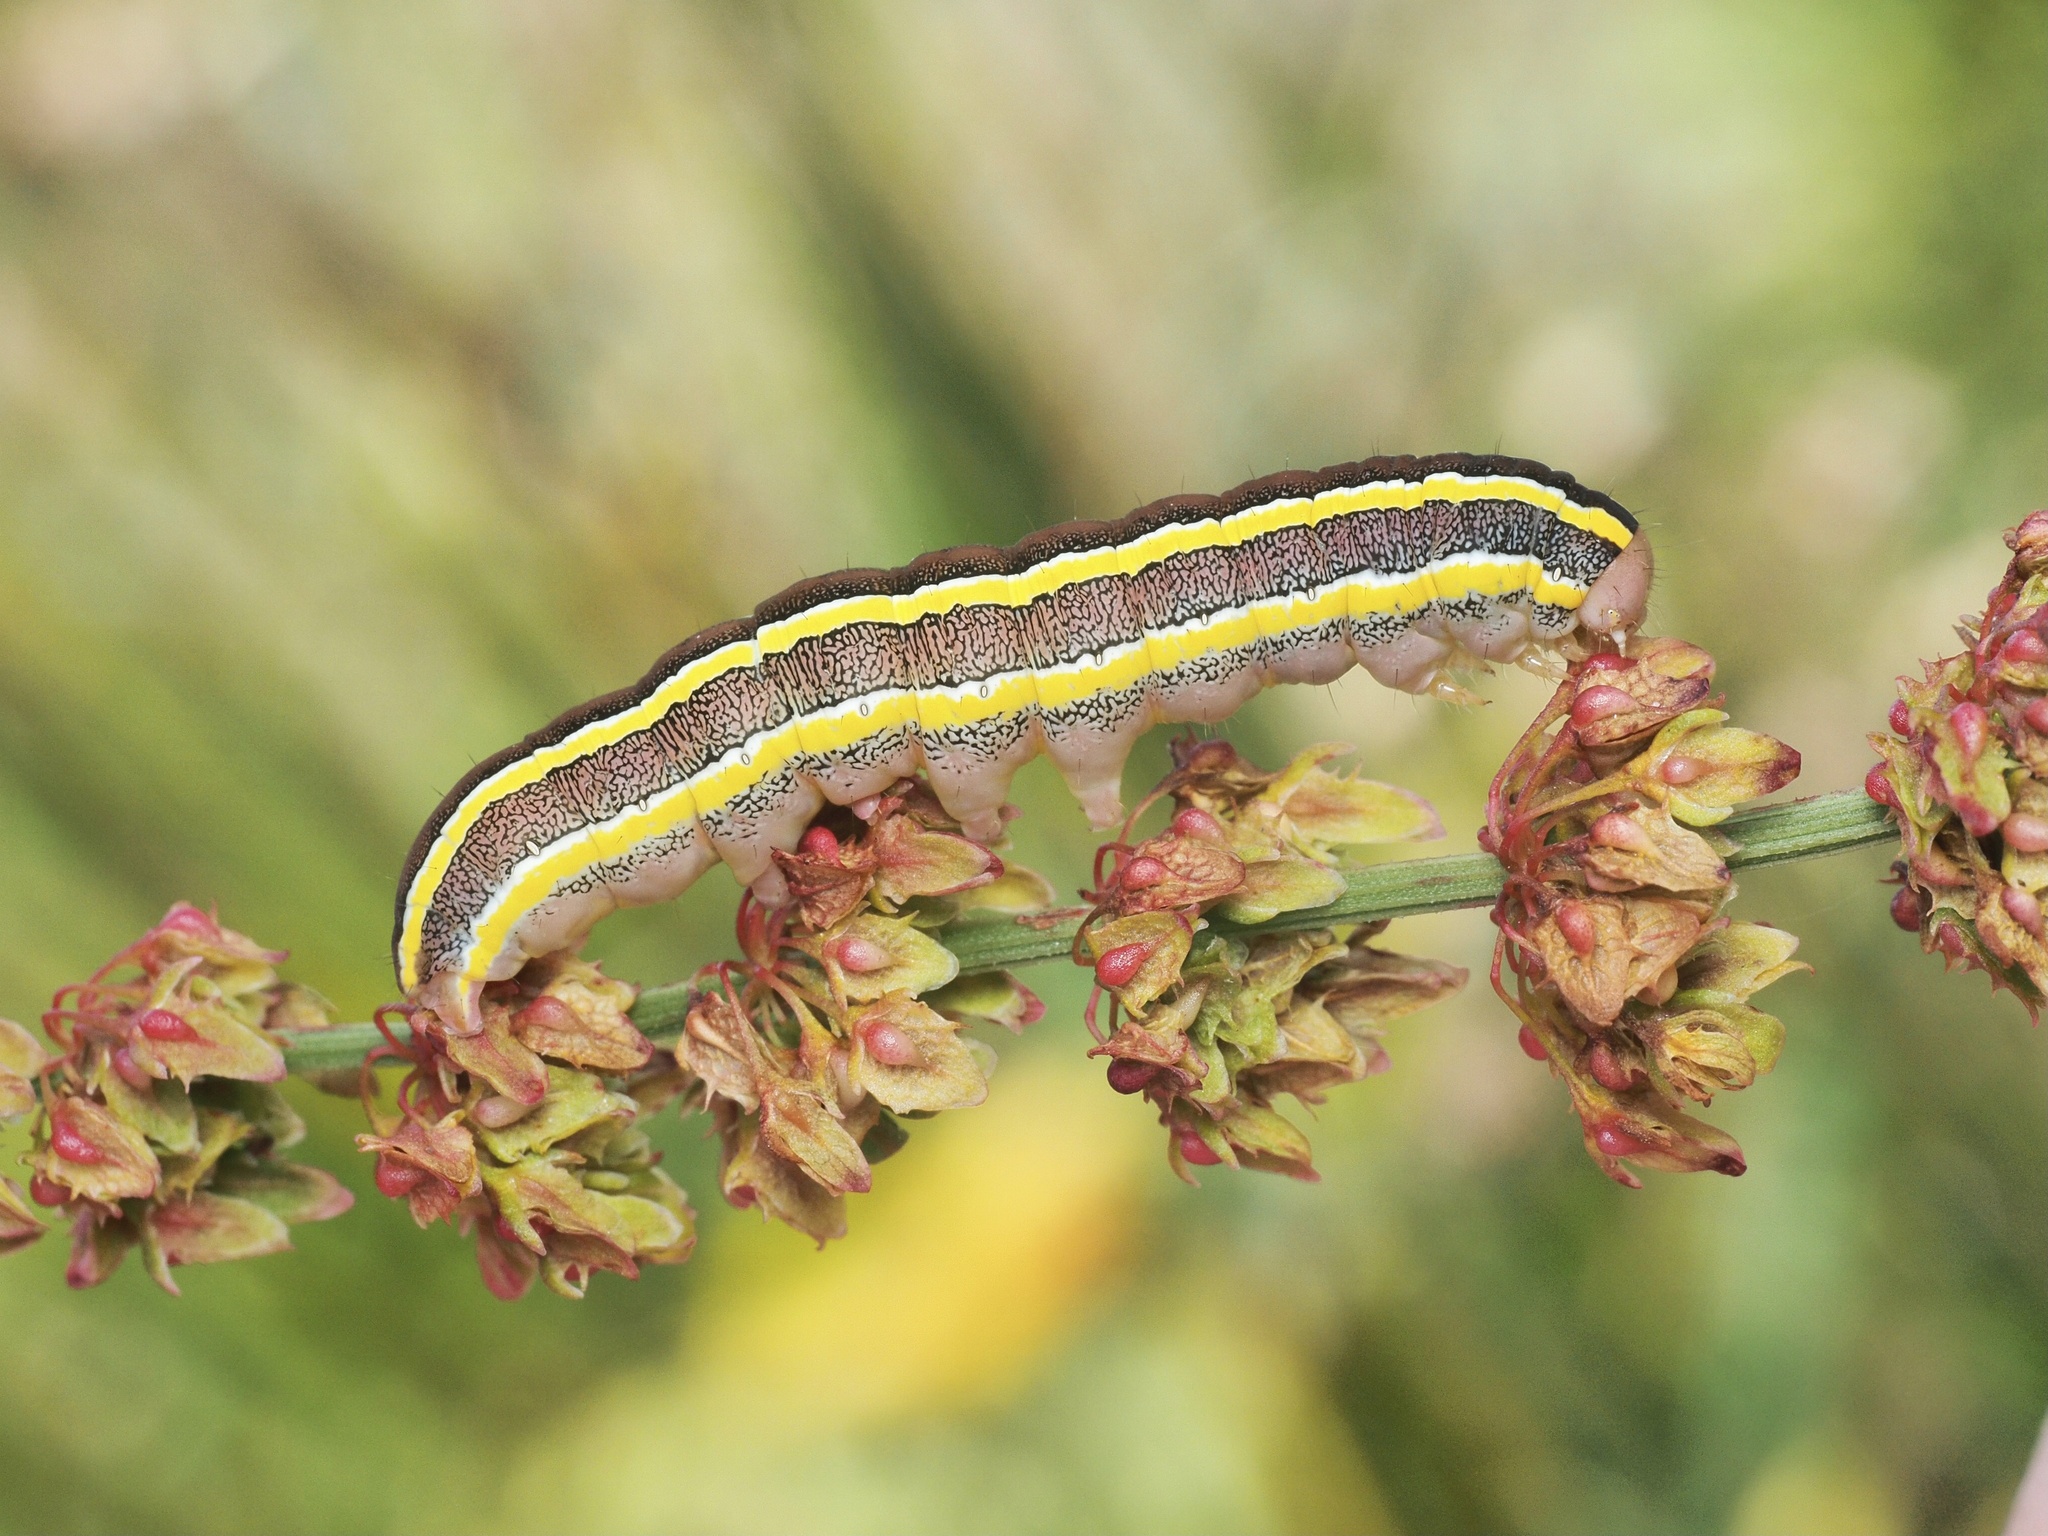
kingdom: Animalia
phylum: Arthropoda
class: Insecta
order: Lepidoptera
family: Noctuidae
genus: Ceramica
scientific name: Ceramica pisi
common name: Broom moth
